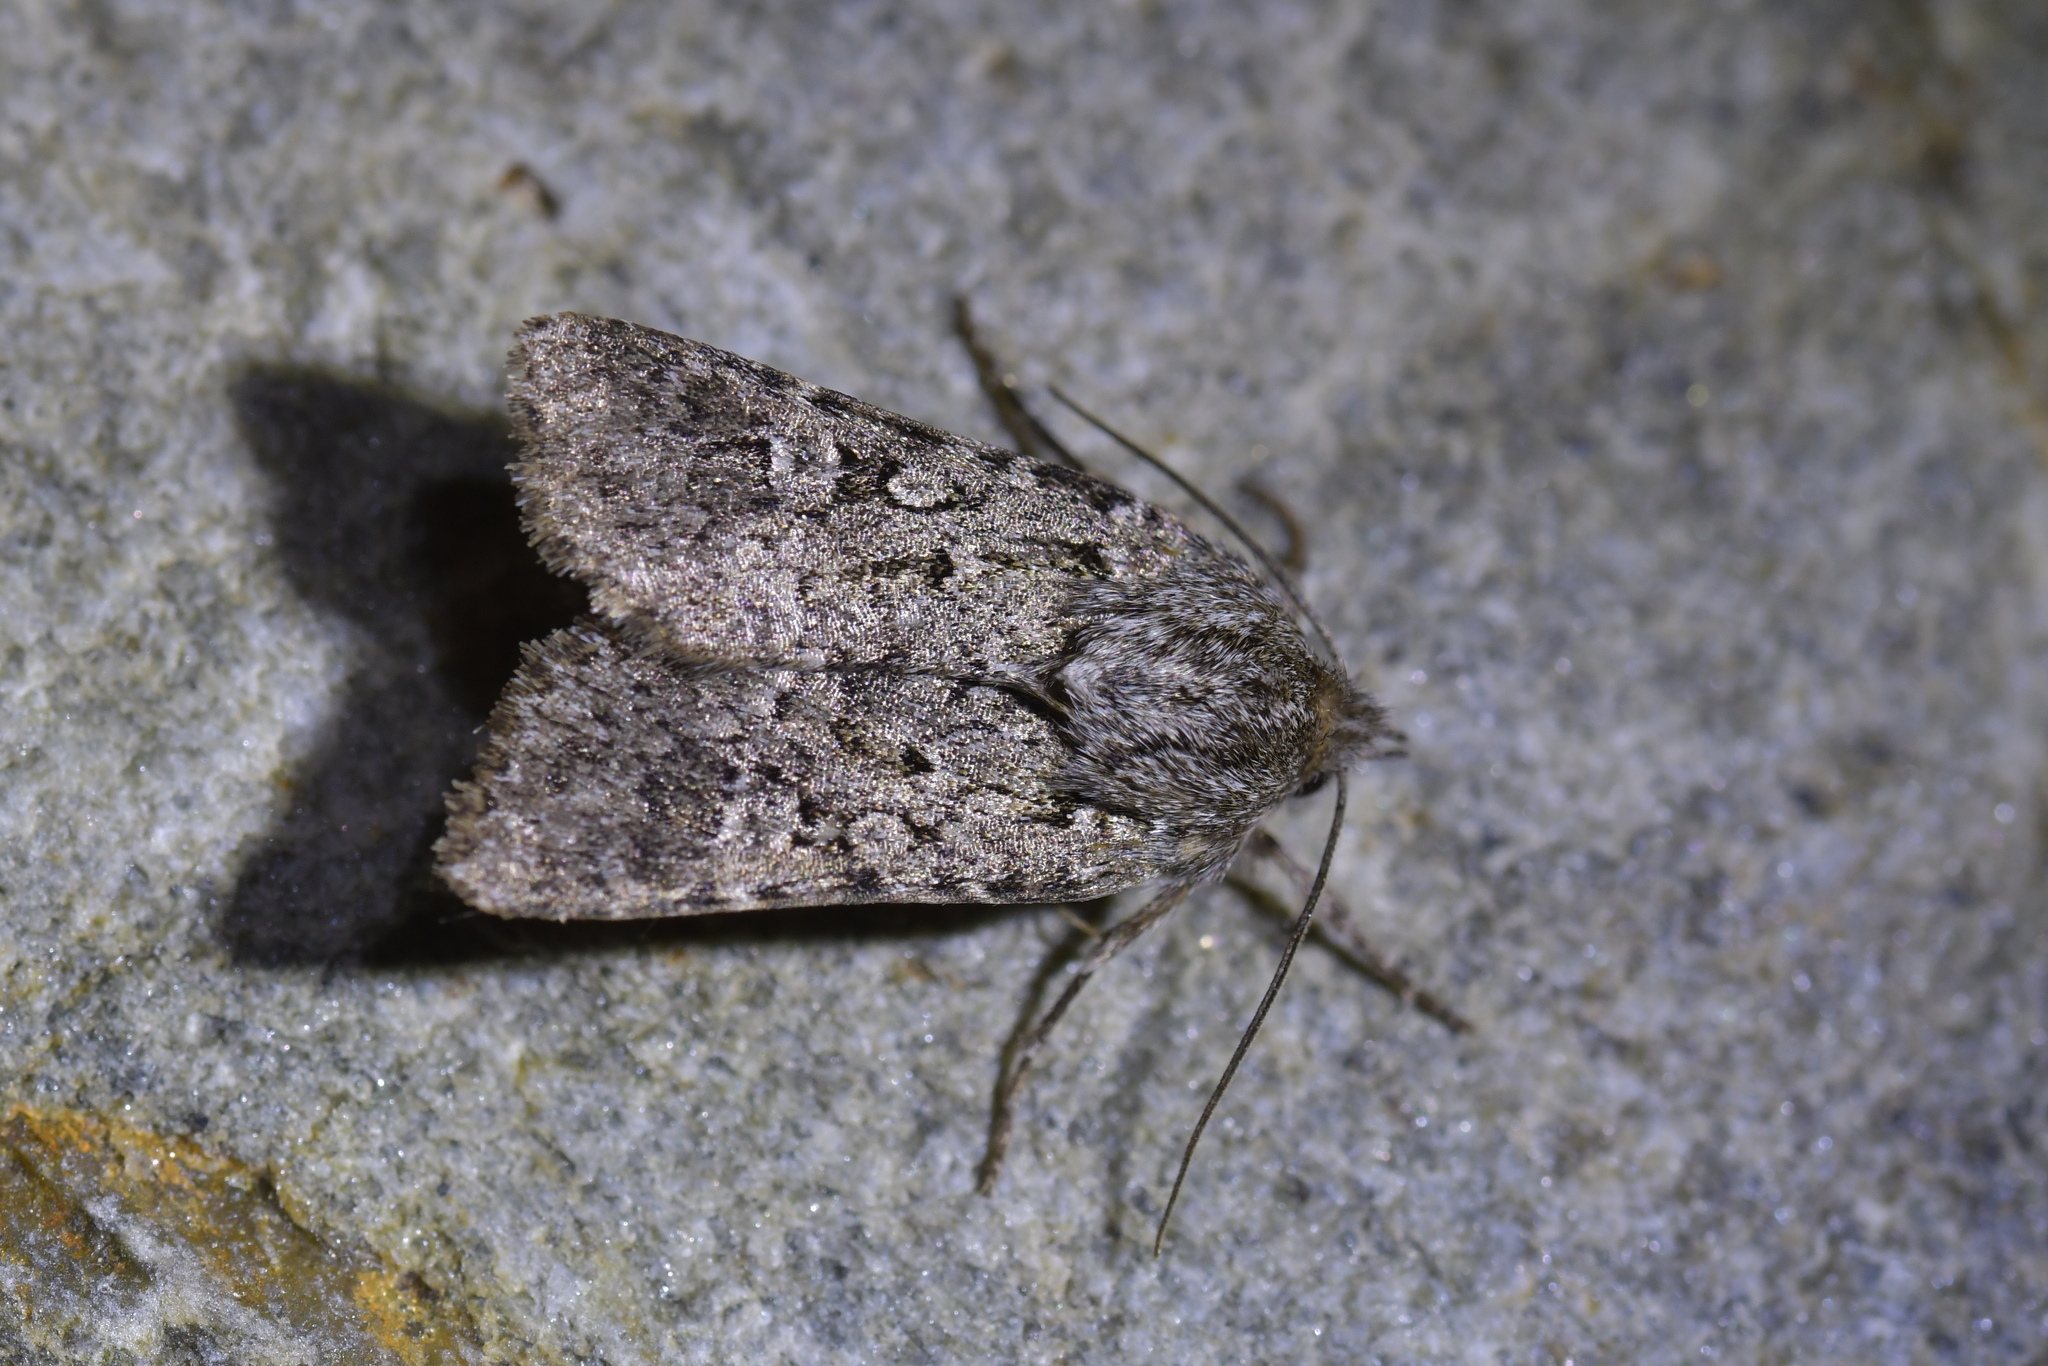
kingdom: Animalia
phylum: Arthropoda
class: Insecta
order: Lepidoptera
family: Noctuidae
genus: Physetica
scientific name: Physetica cucullina
